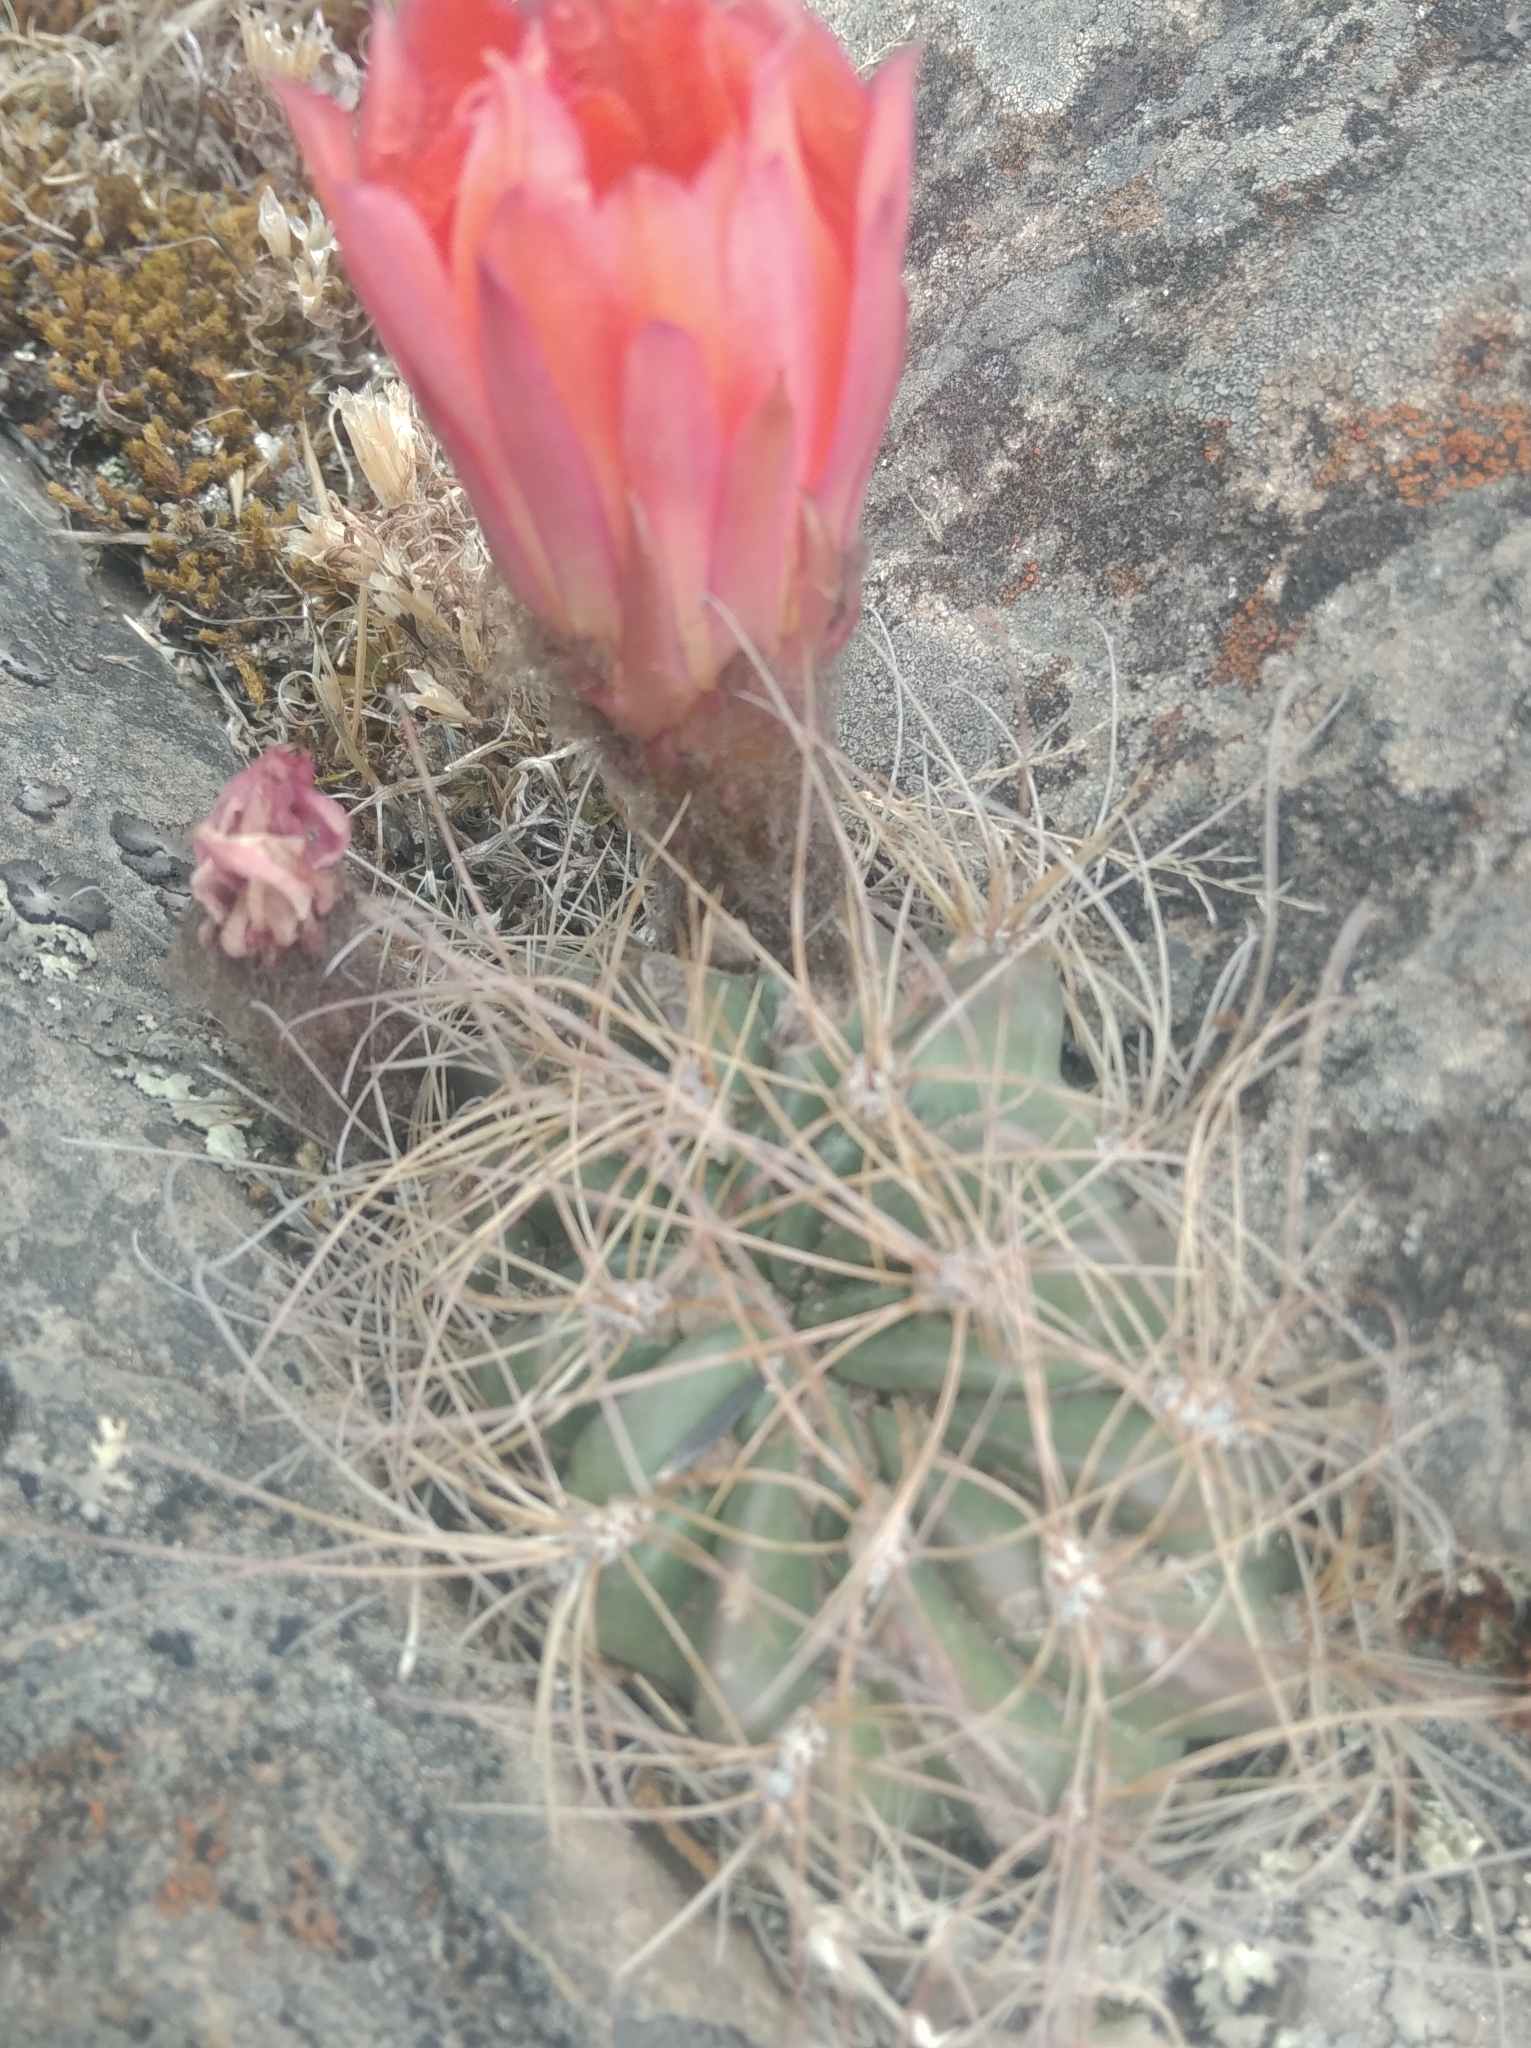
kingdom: Plantae
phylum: Tracheophyta
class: Magnoliopsida
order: Caryophyllales
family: Cactaceae
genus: Echinopsis
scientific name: Echinopsis jajoana
